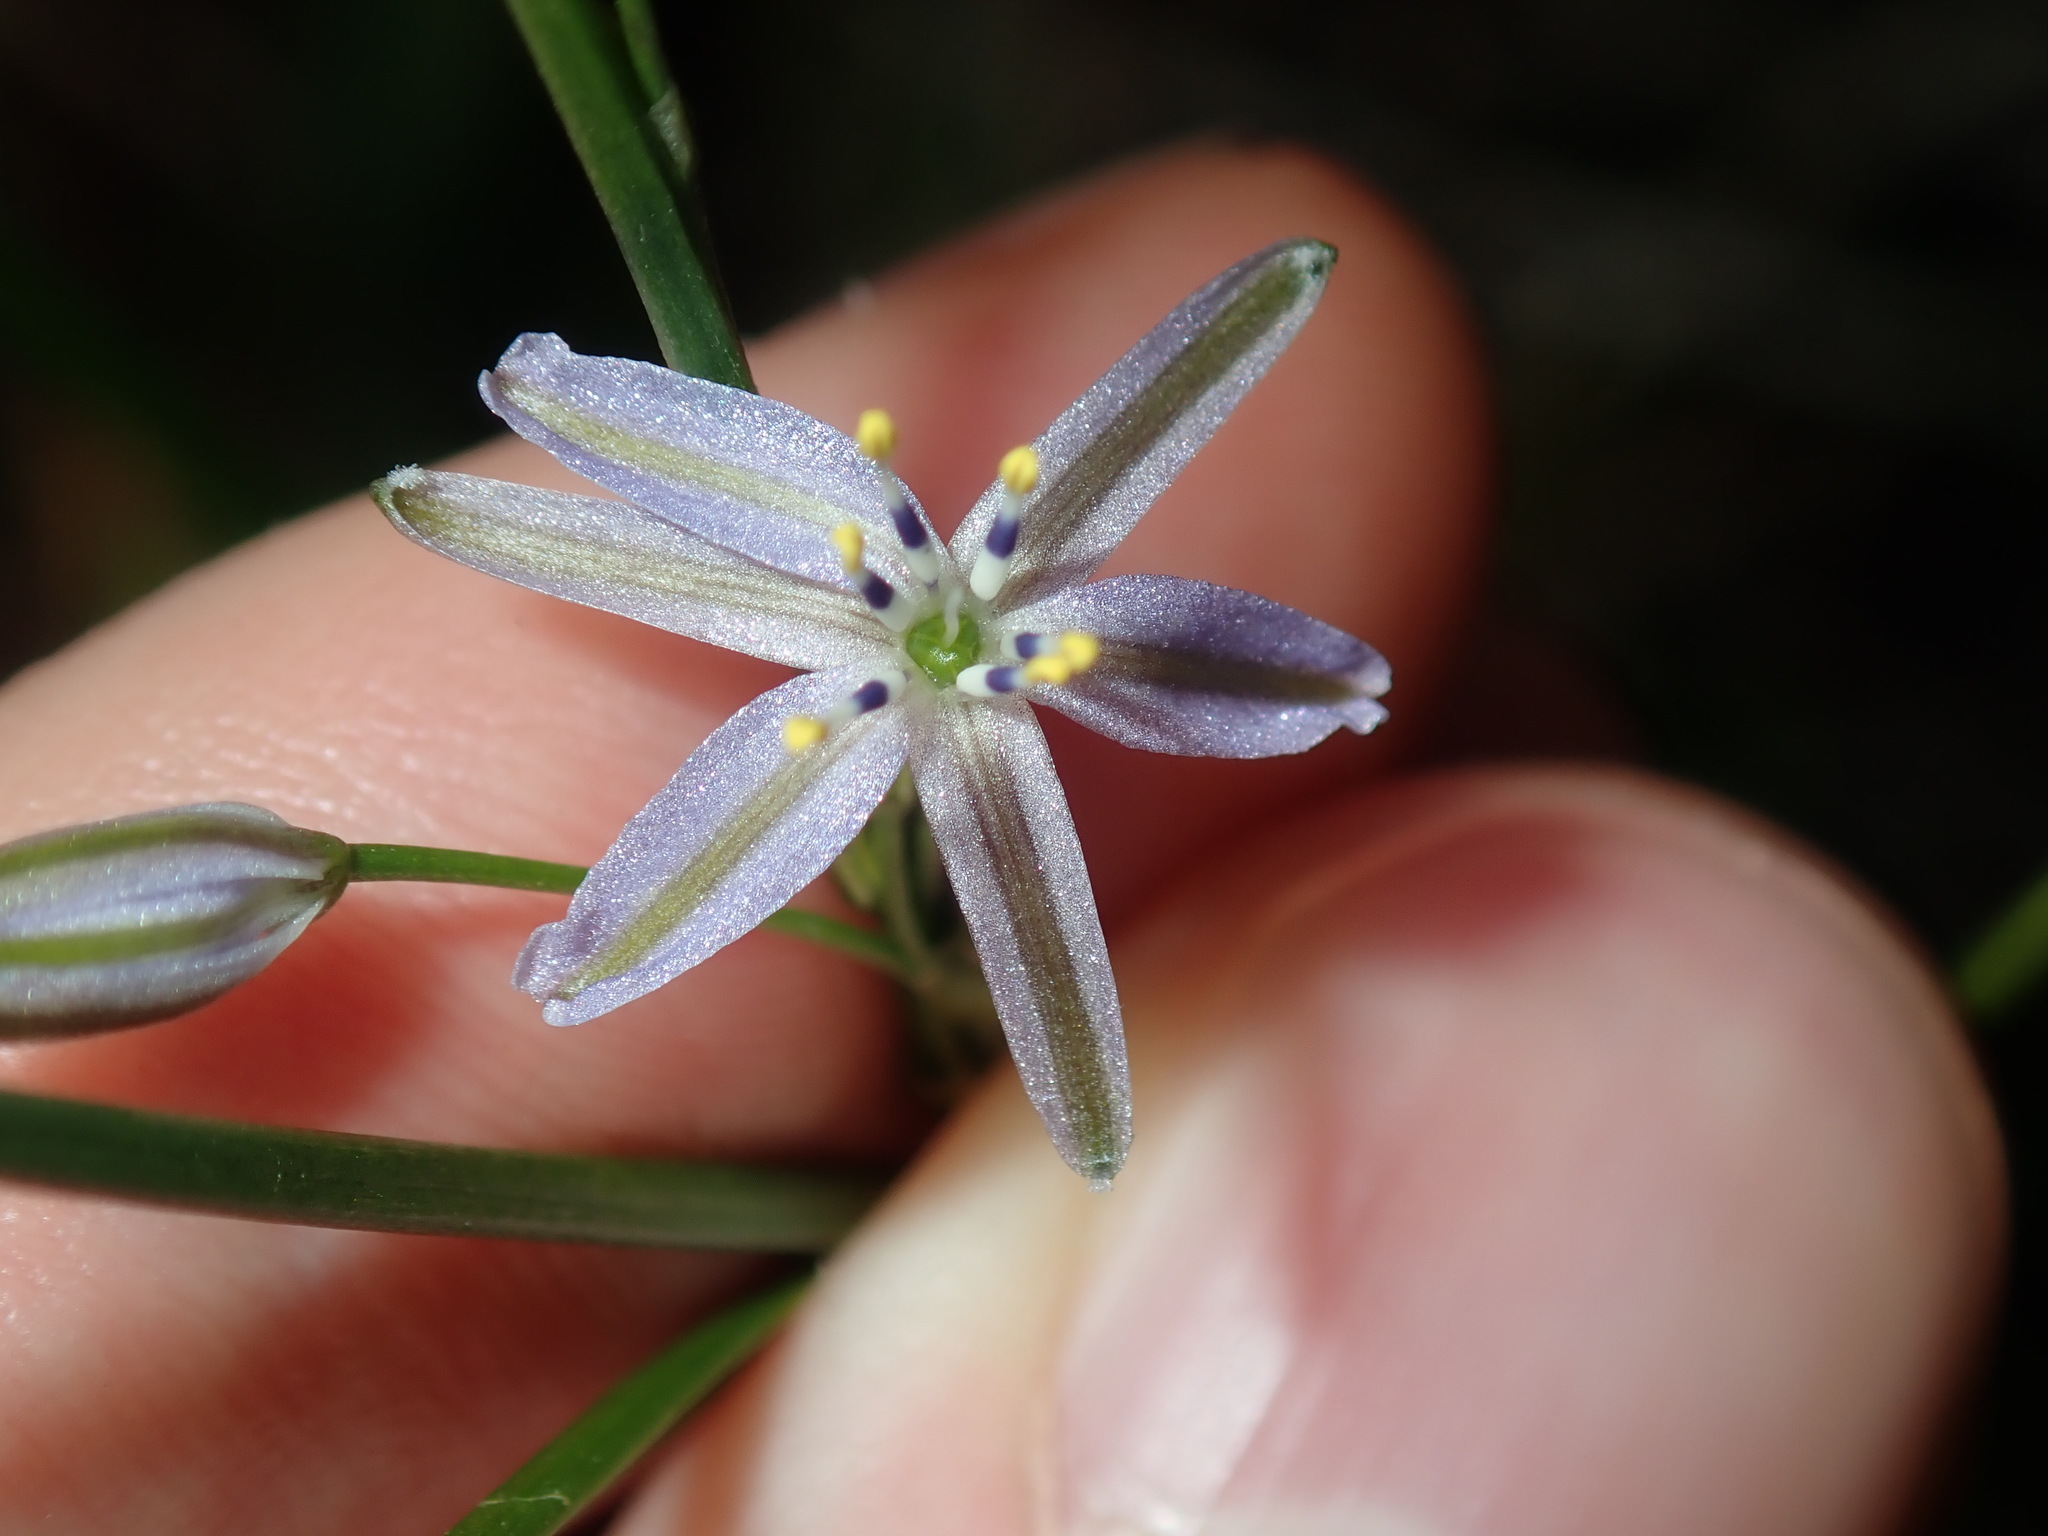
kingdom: Plantae
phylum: Tracheophyta
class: Liliopsida
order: Asparagales
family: Asphodelaceae
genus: Caesia
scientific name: Caesia parviflora
